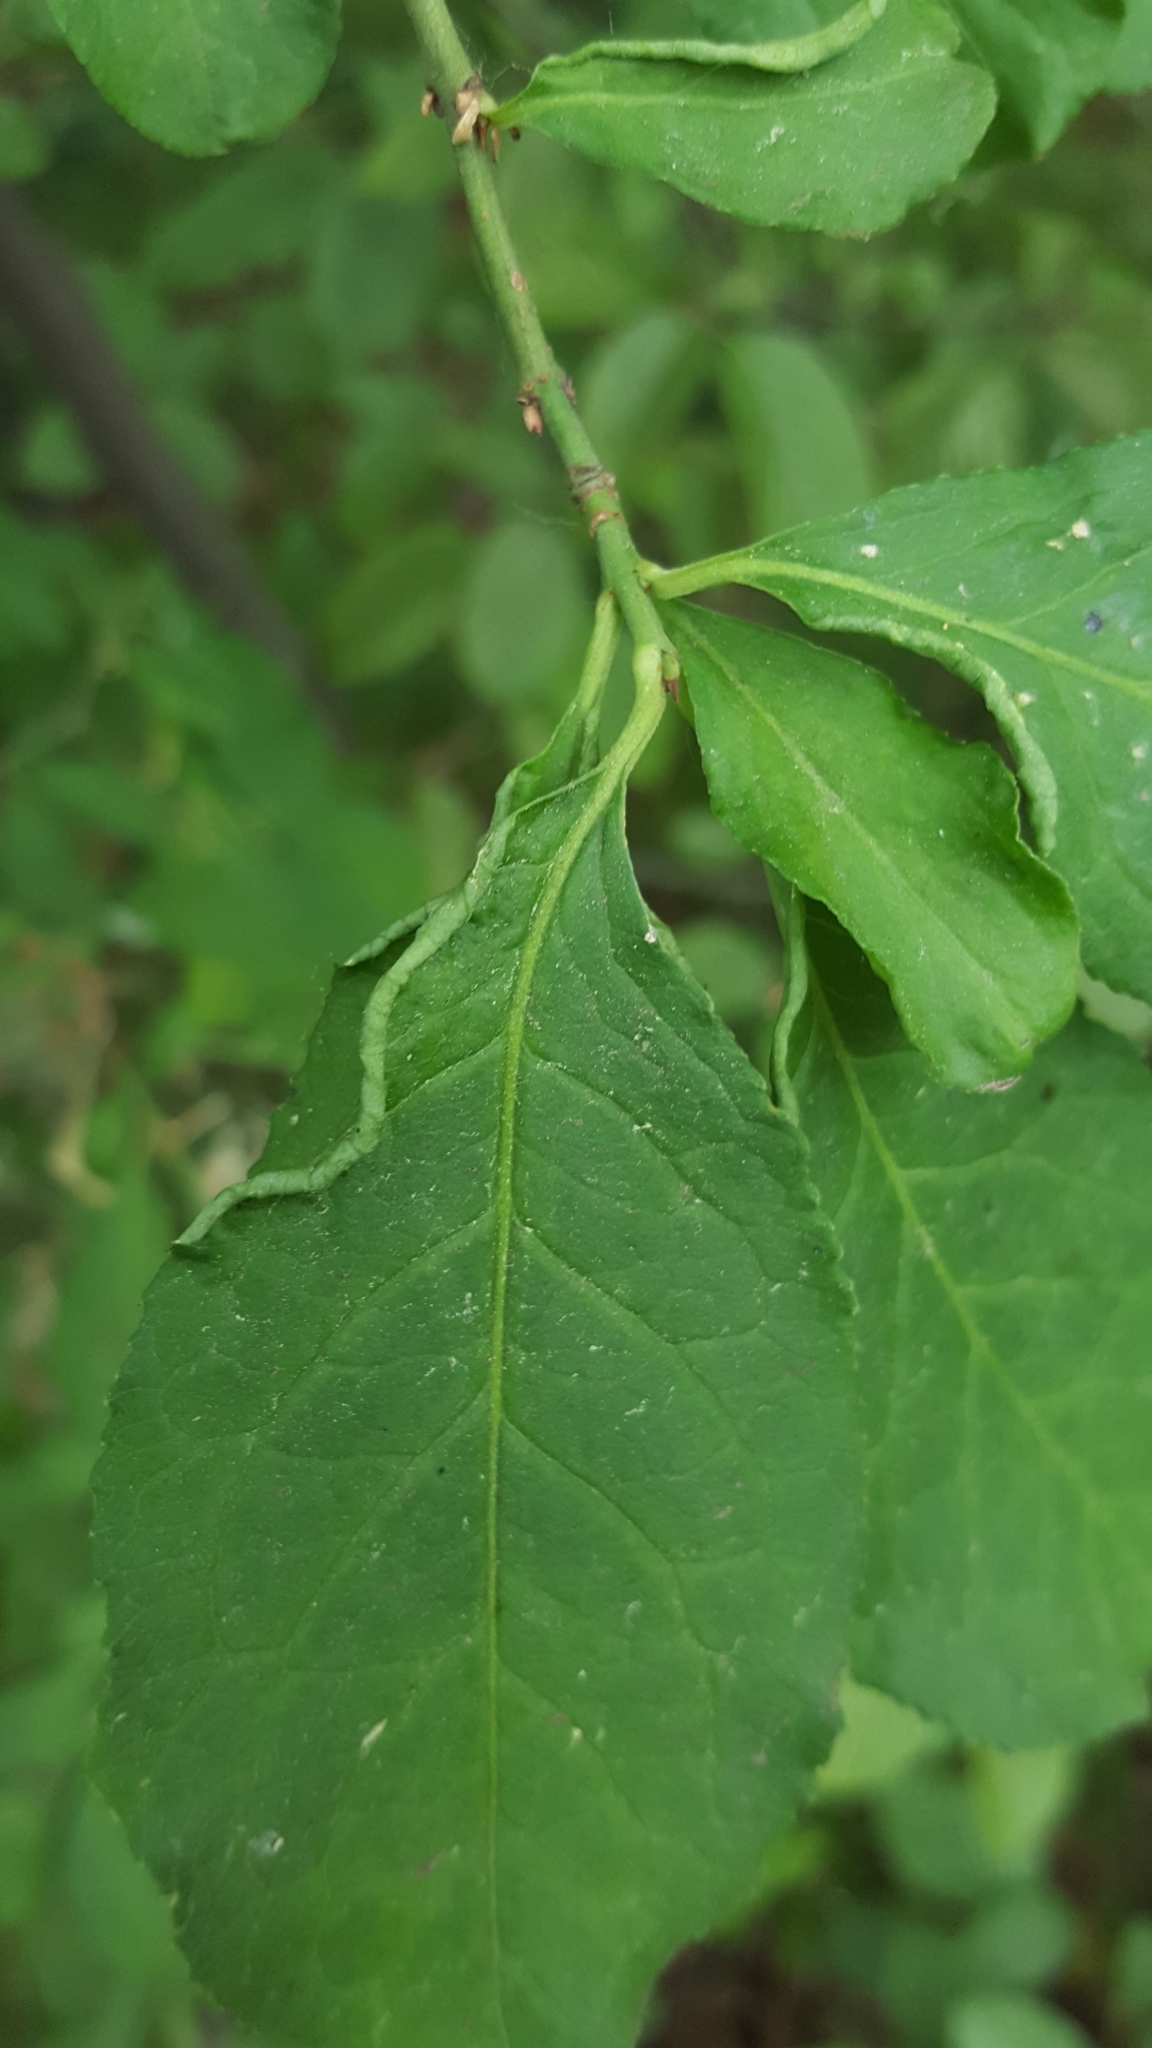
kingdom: Animalia
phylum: Arthropoda
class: Arachnida
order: Trombidiformes
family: Eriophyidae
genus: Stenacis
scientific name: Stenacis evonymi
